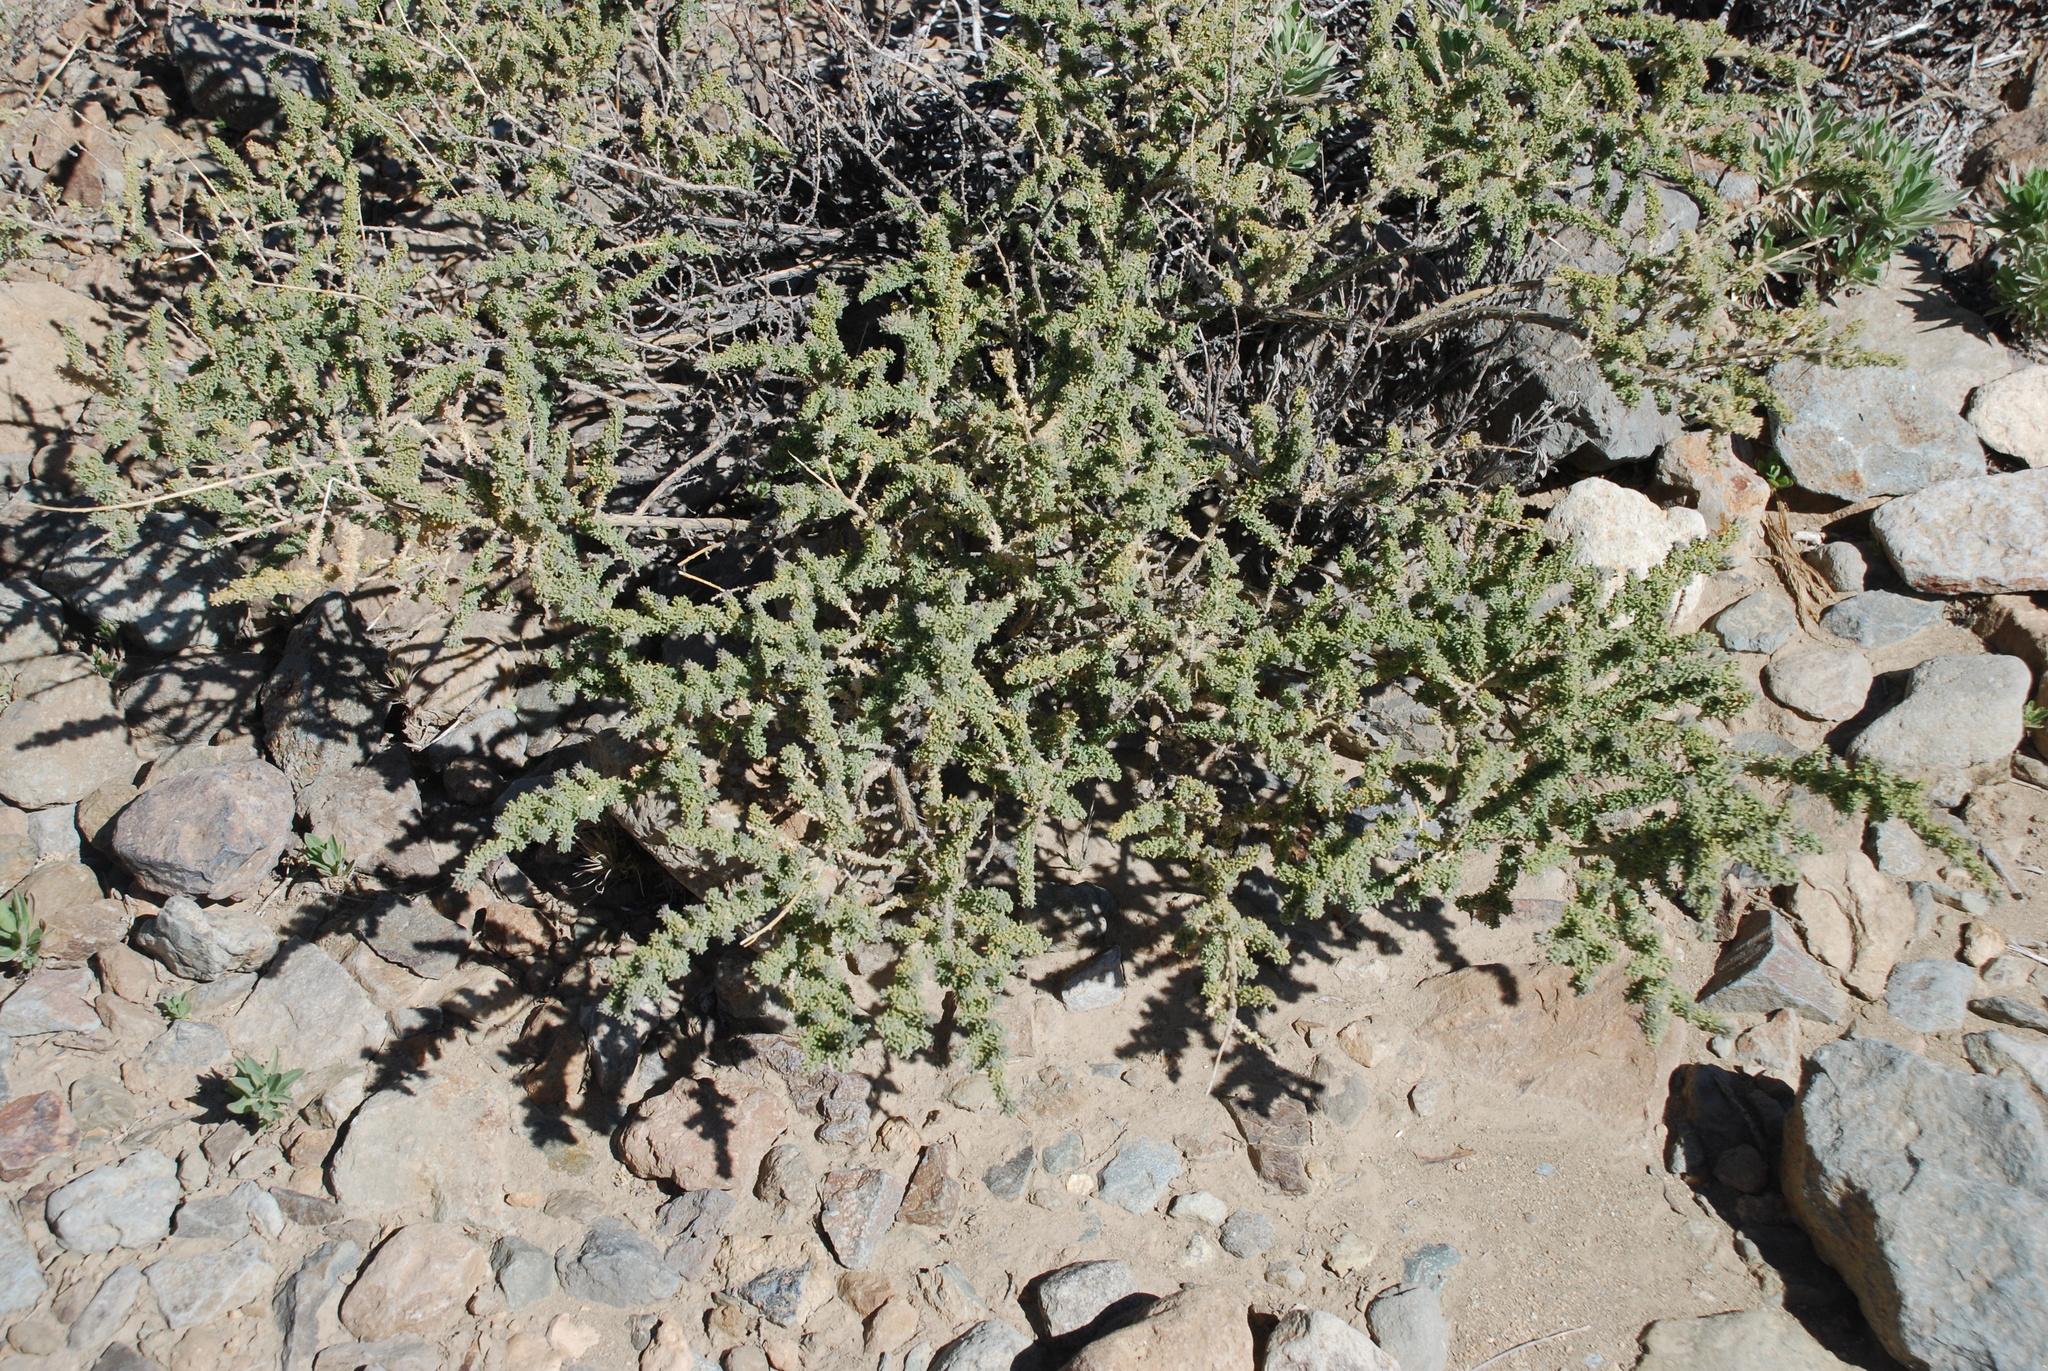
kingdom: Plantae
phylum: Tracheophyta
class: Magnoliopsida
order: Fabales
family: Fabaceae
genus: Adenocarpus
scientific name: Adenocarpus viscosus
